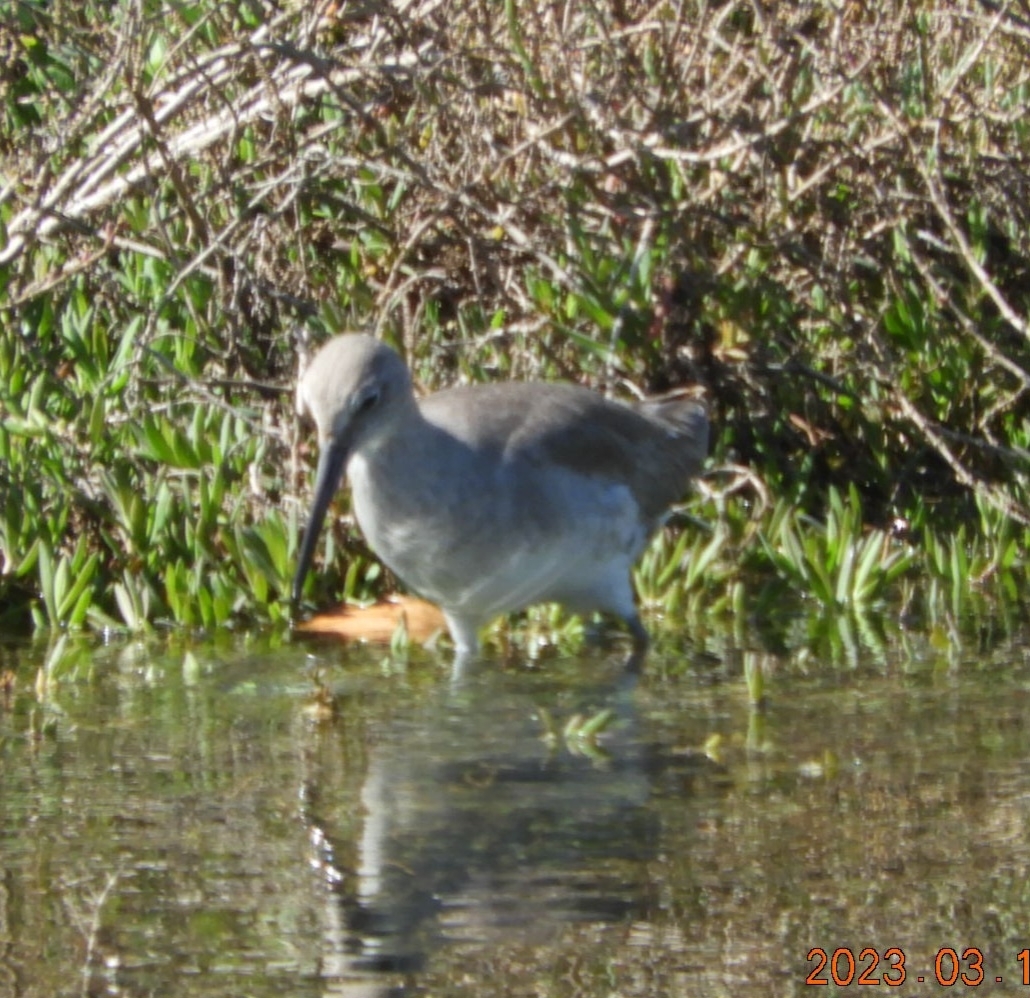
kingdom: Animalia
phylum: Chordata
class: Aves
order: Charadriiformes
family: Scolopacidae
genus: Tringa
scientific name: Tringa semipalmata
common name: Willet
